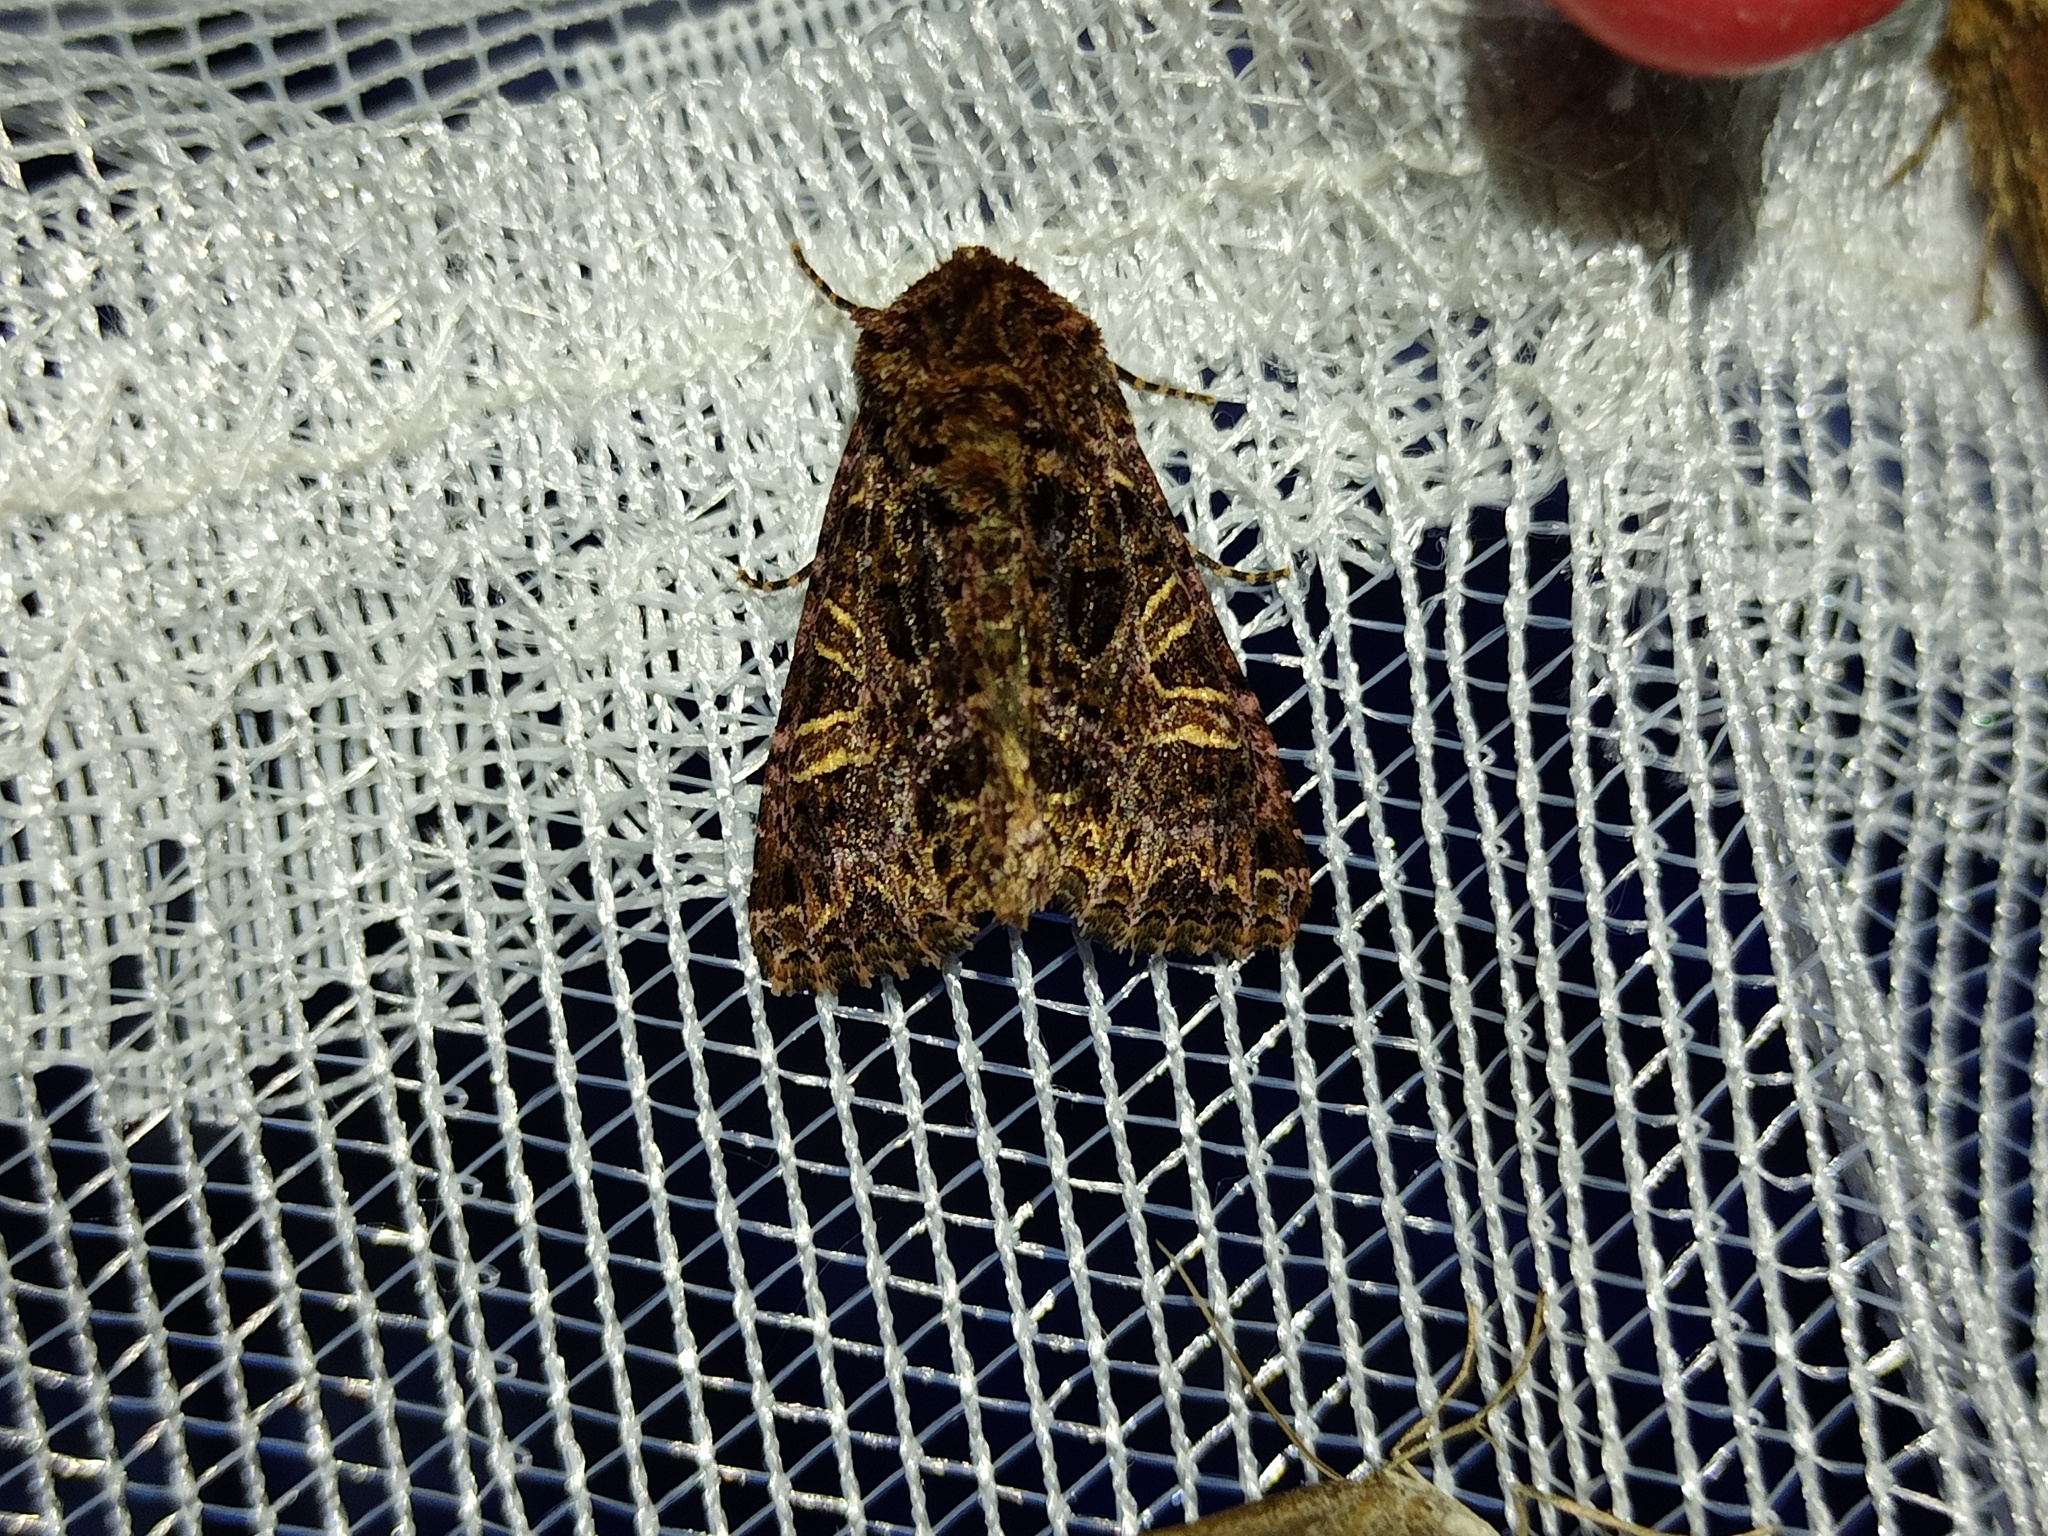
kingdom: Animalia
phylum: Arthropoda
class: Insecta
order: Lepidoptera
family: Noctuidae
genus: Sideridis
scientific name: Sideridis rivularis
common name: Campion
